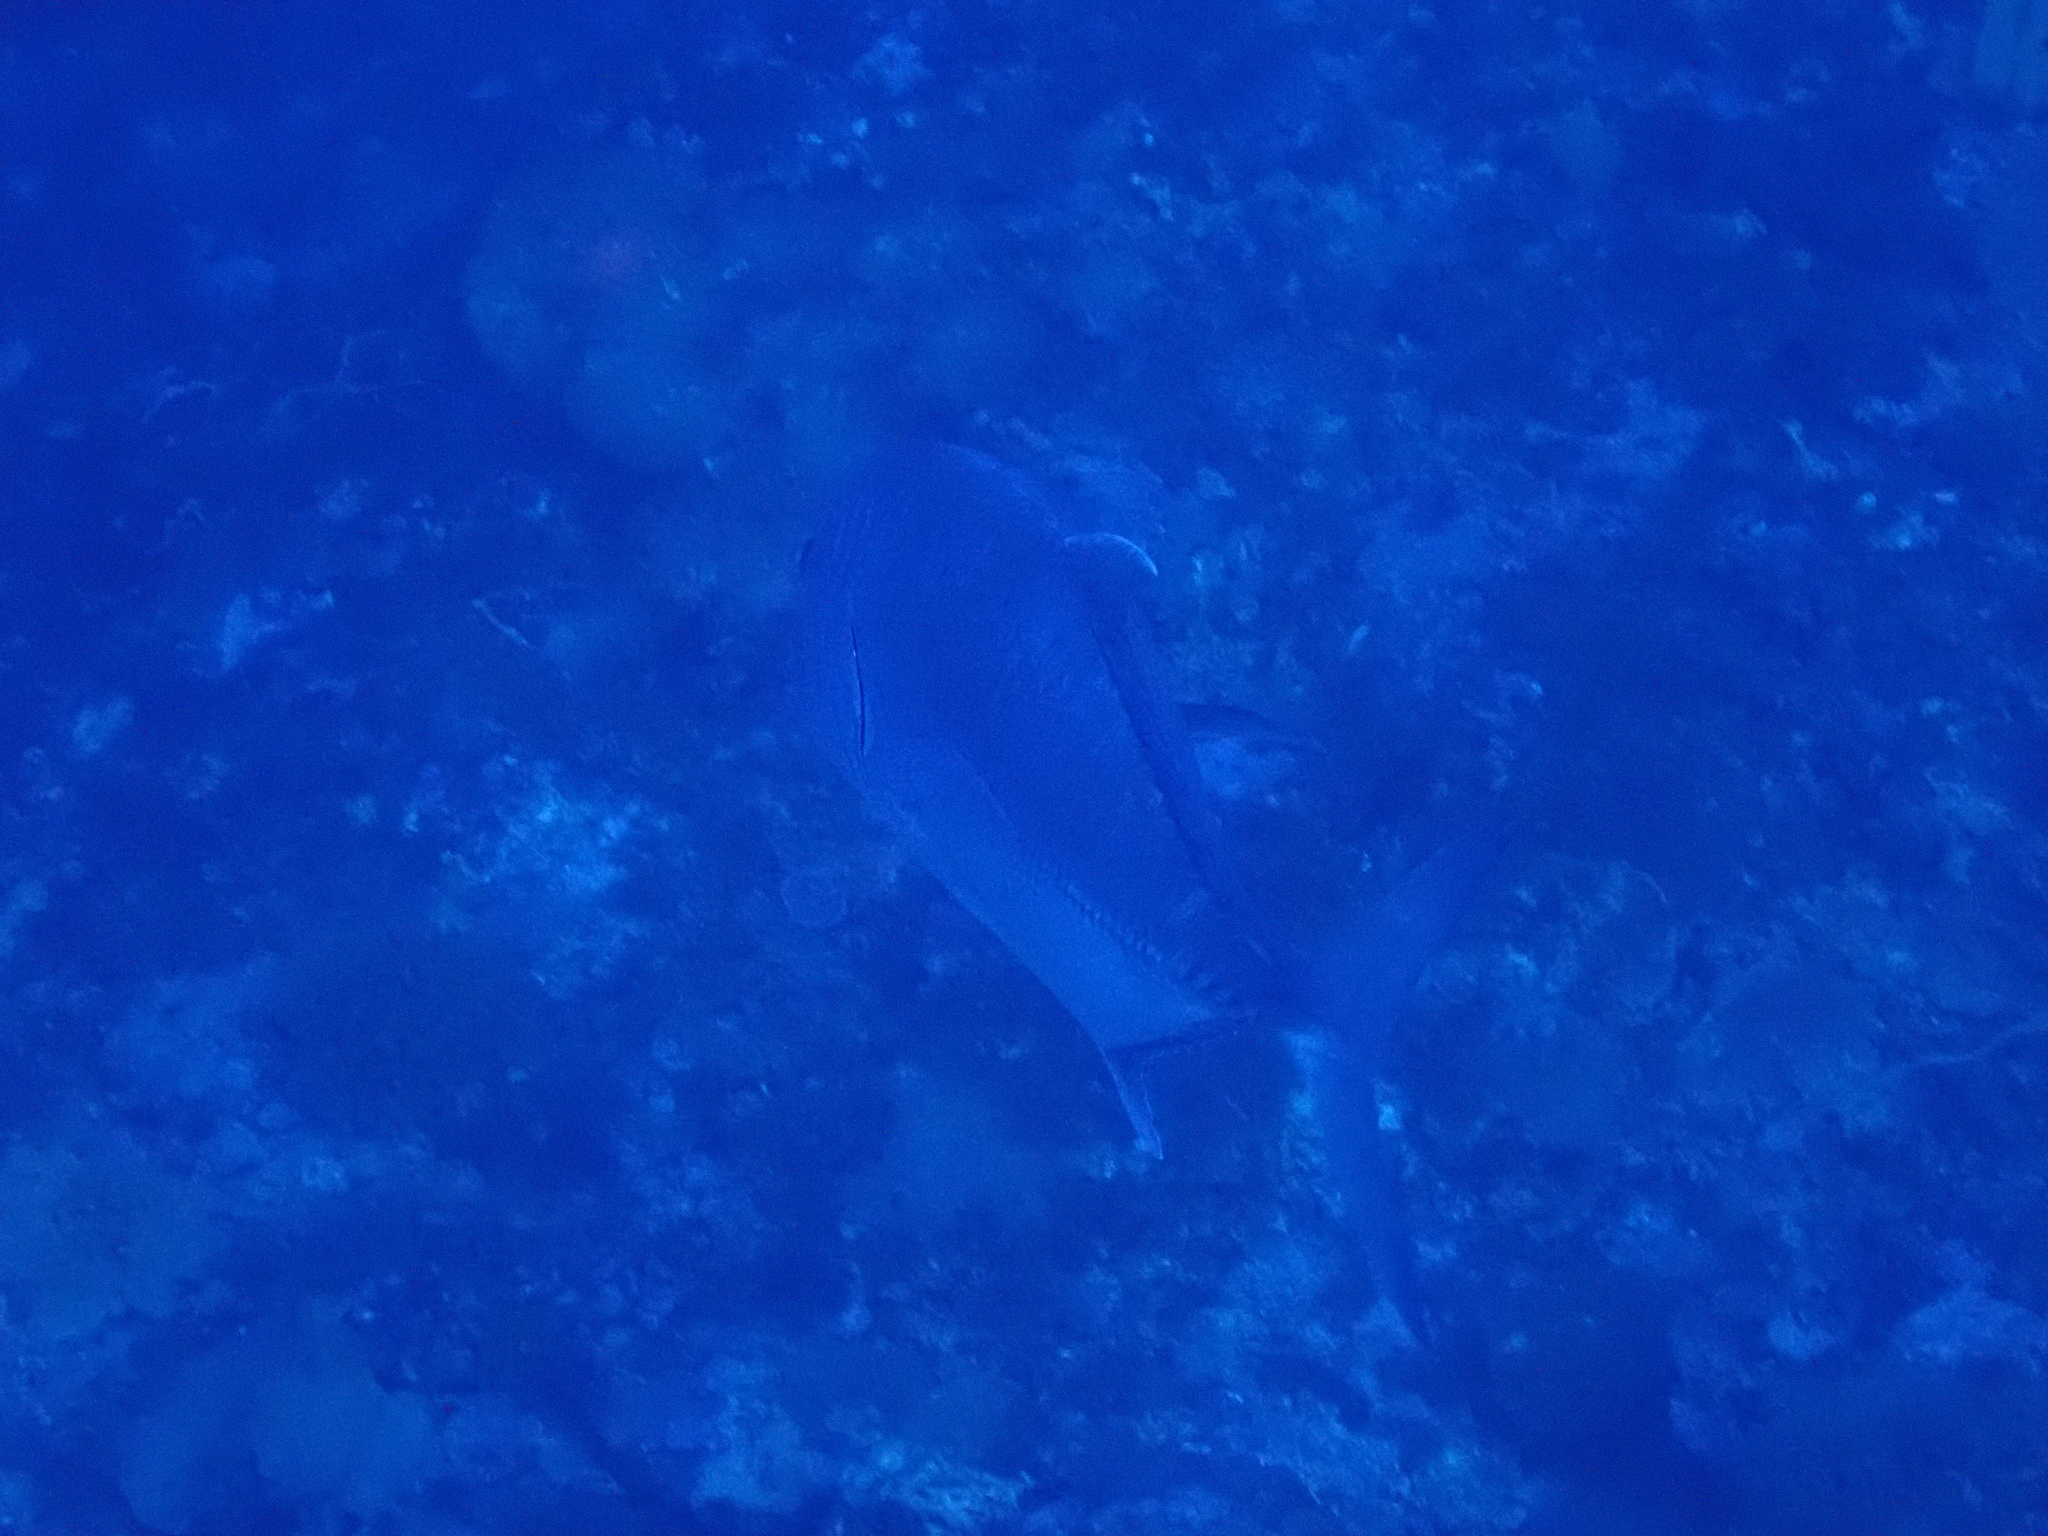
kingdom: Animalia
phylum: Chordata
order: Perciformes
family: Carangidae
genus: Caranx
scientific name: Caranx ignobilis
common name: Giant trevally
